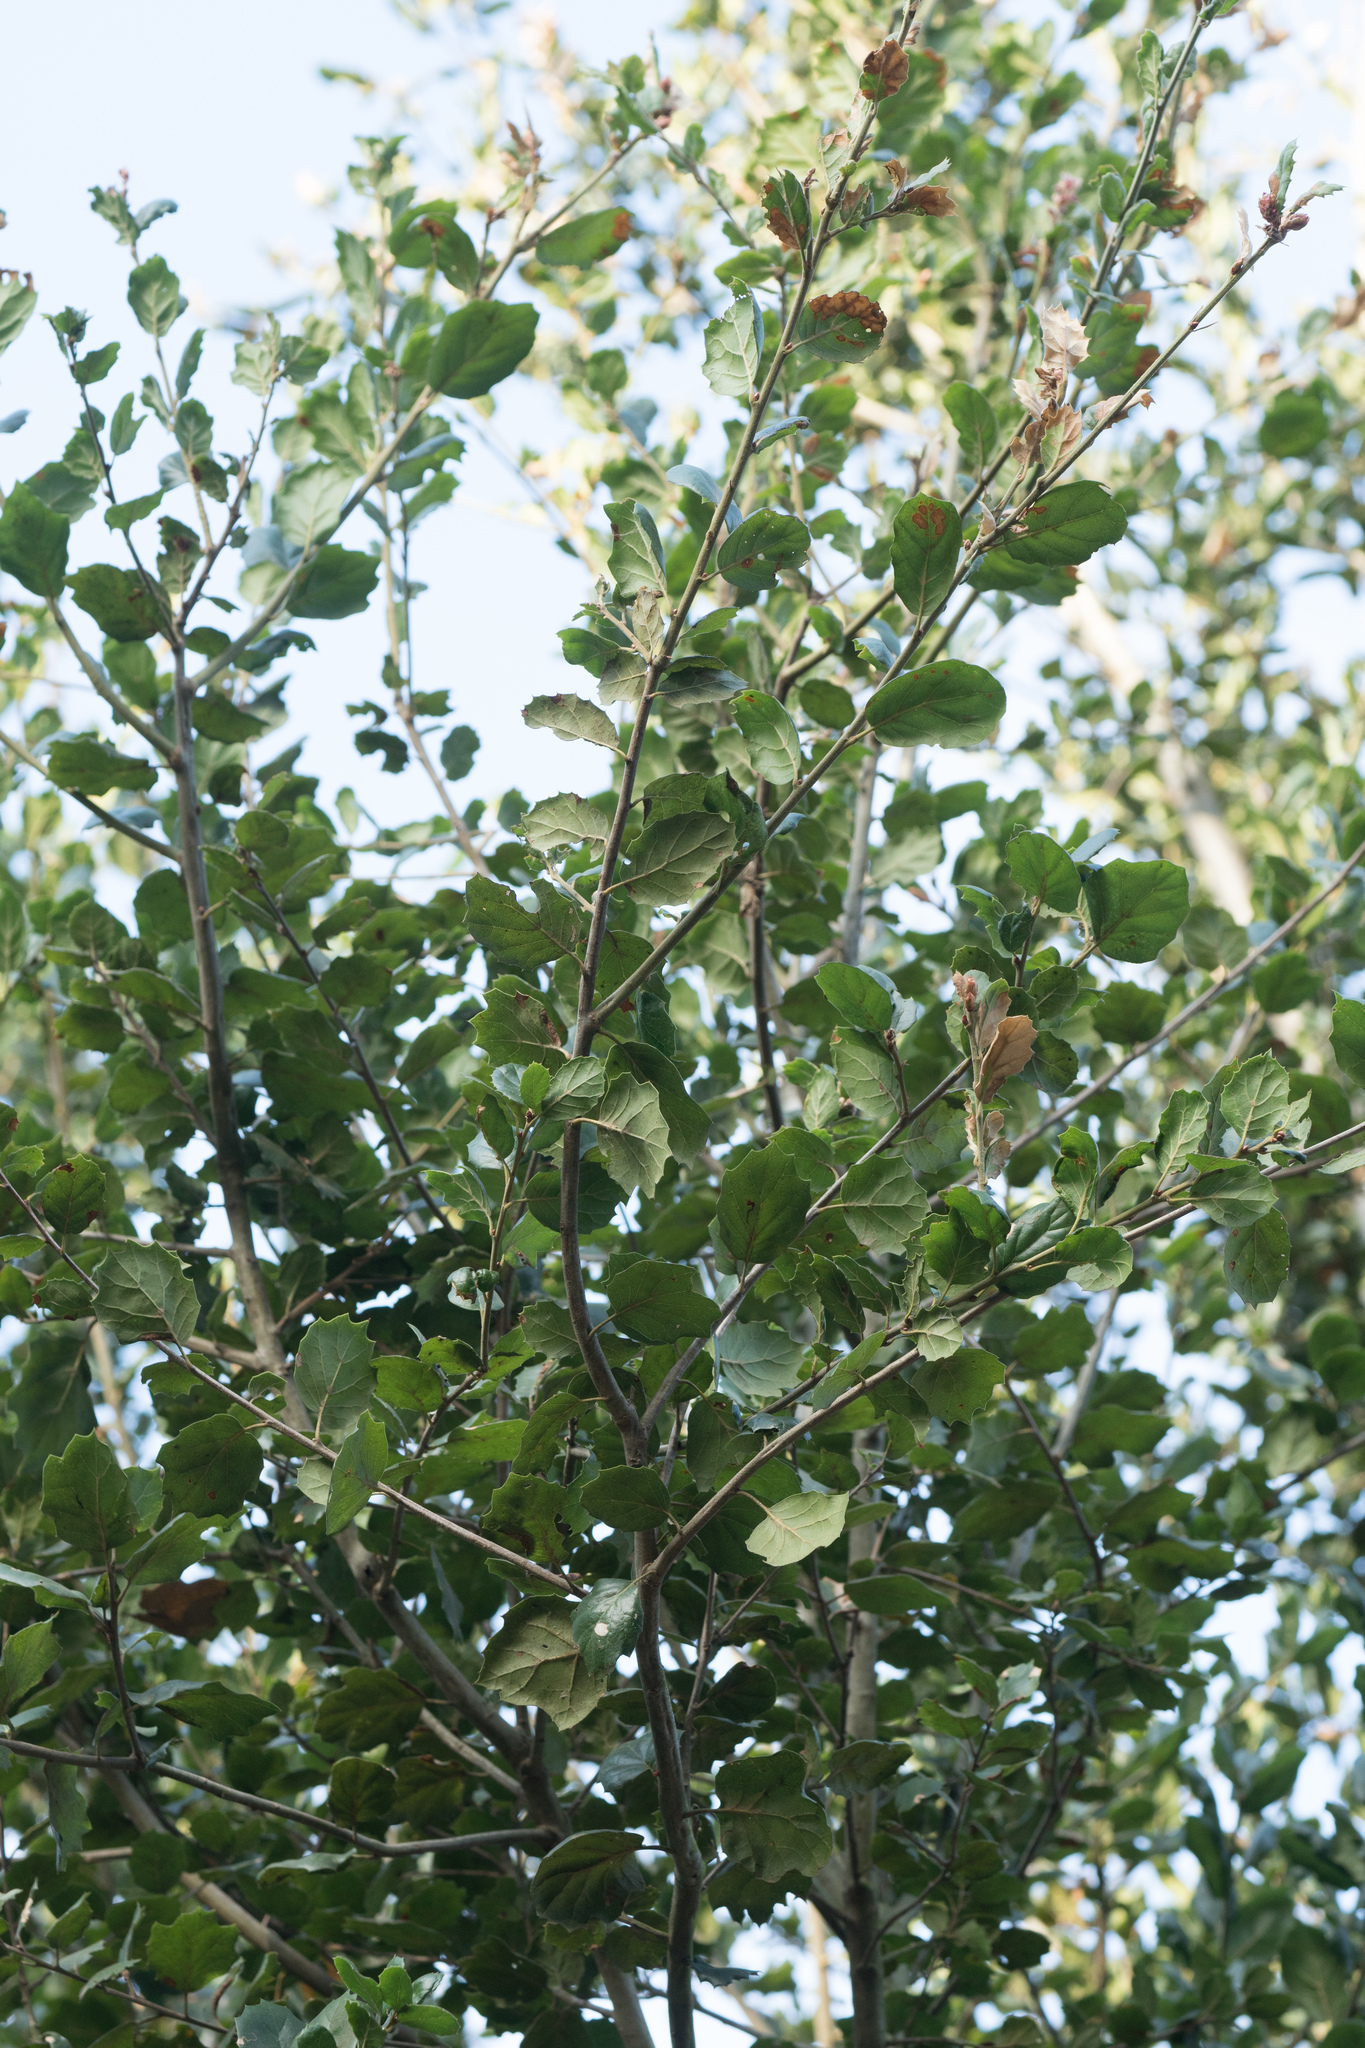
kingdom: Plantae
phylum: Tracheophyta
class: Magnoliopsida
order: Fagales
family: Fagaceae
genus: Quercus
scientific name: Quercus agrifolia
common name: California live oak
